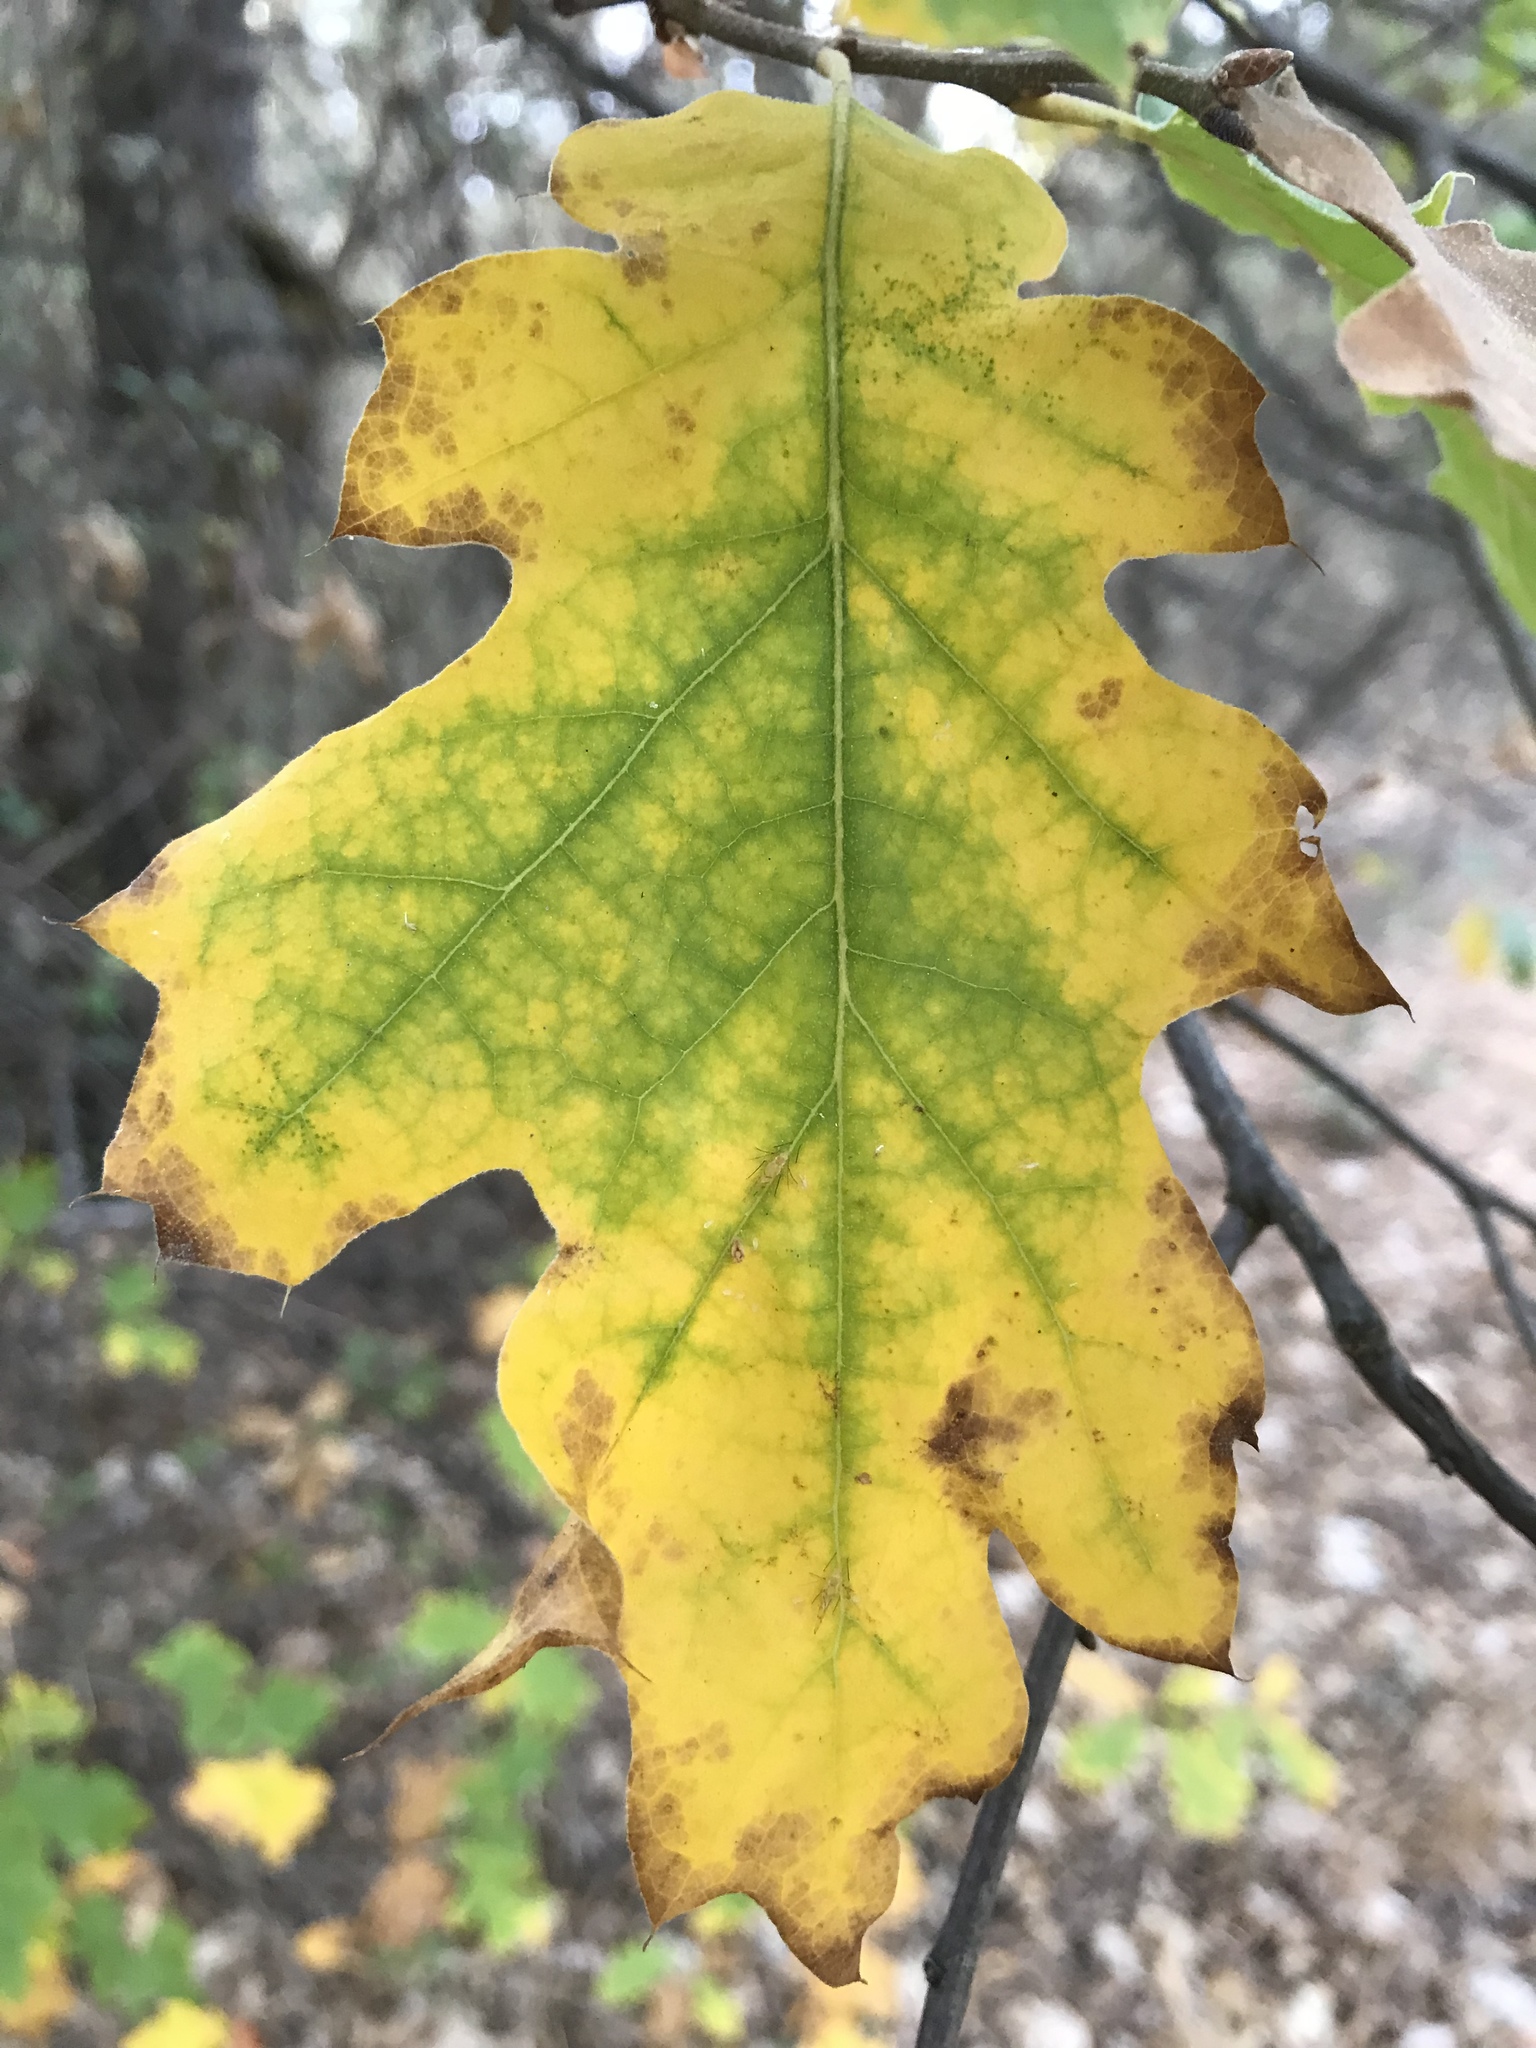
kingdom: Plantae
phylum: Tracheophyta
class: Magnoliopsida
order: Fagales
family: Fagaceae
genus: Quercus
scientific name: Quercus kelloggii
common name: California black oak
